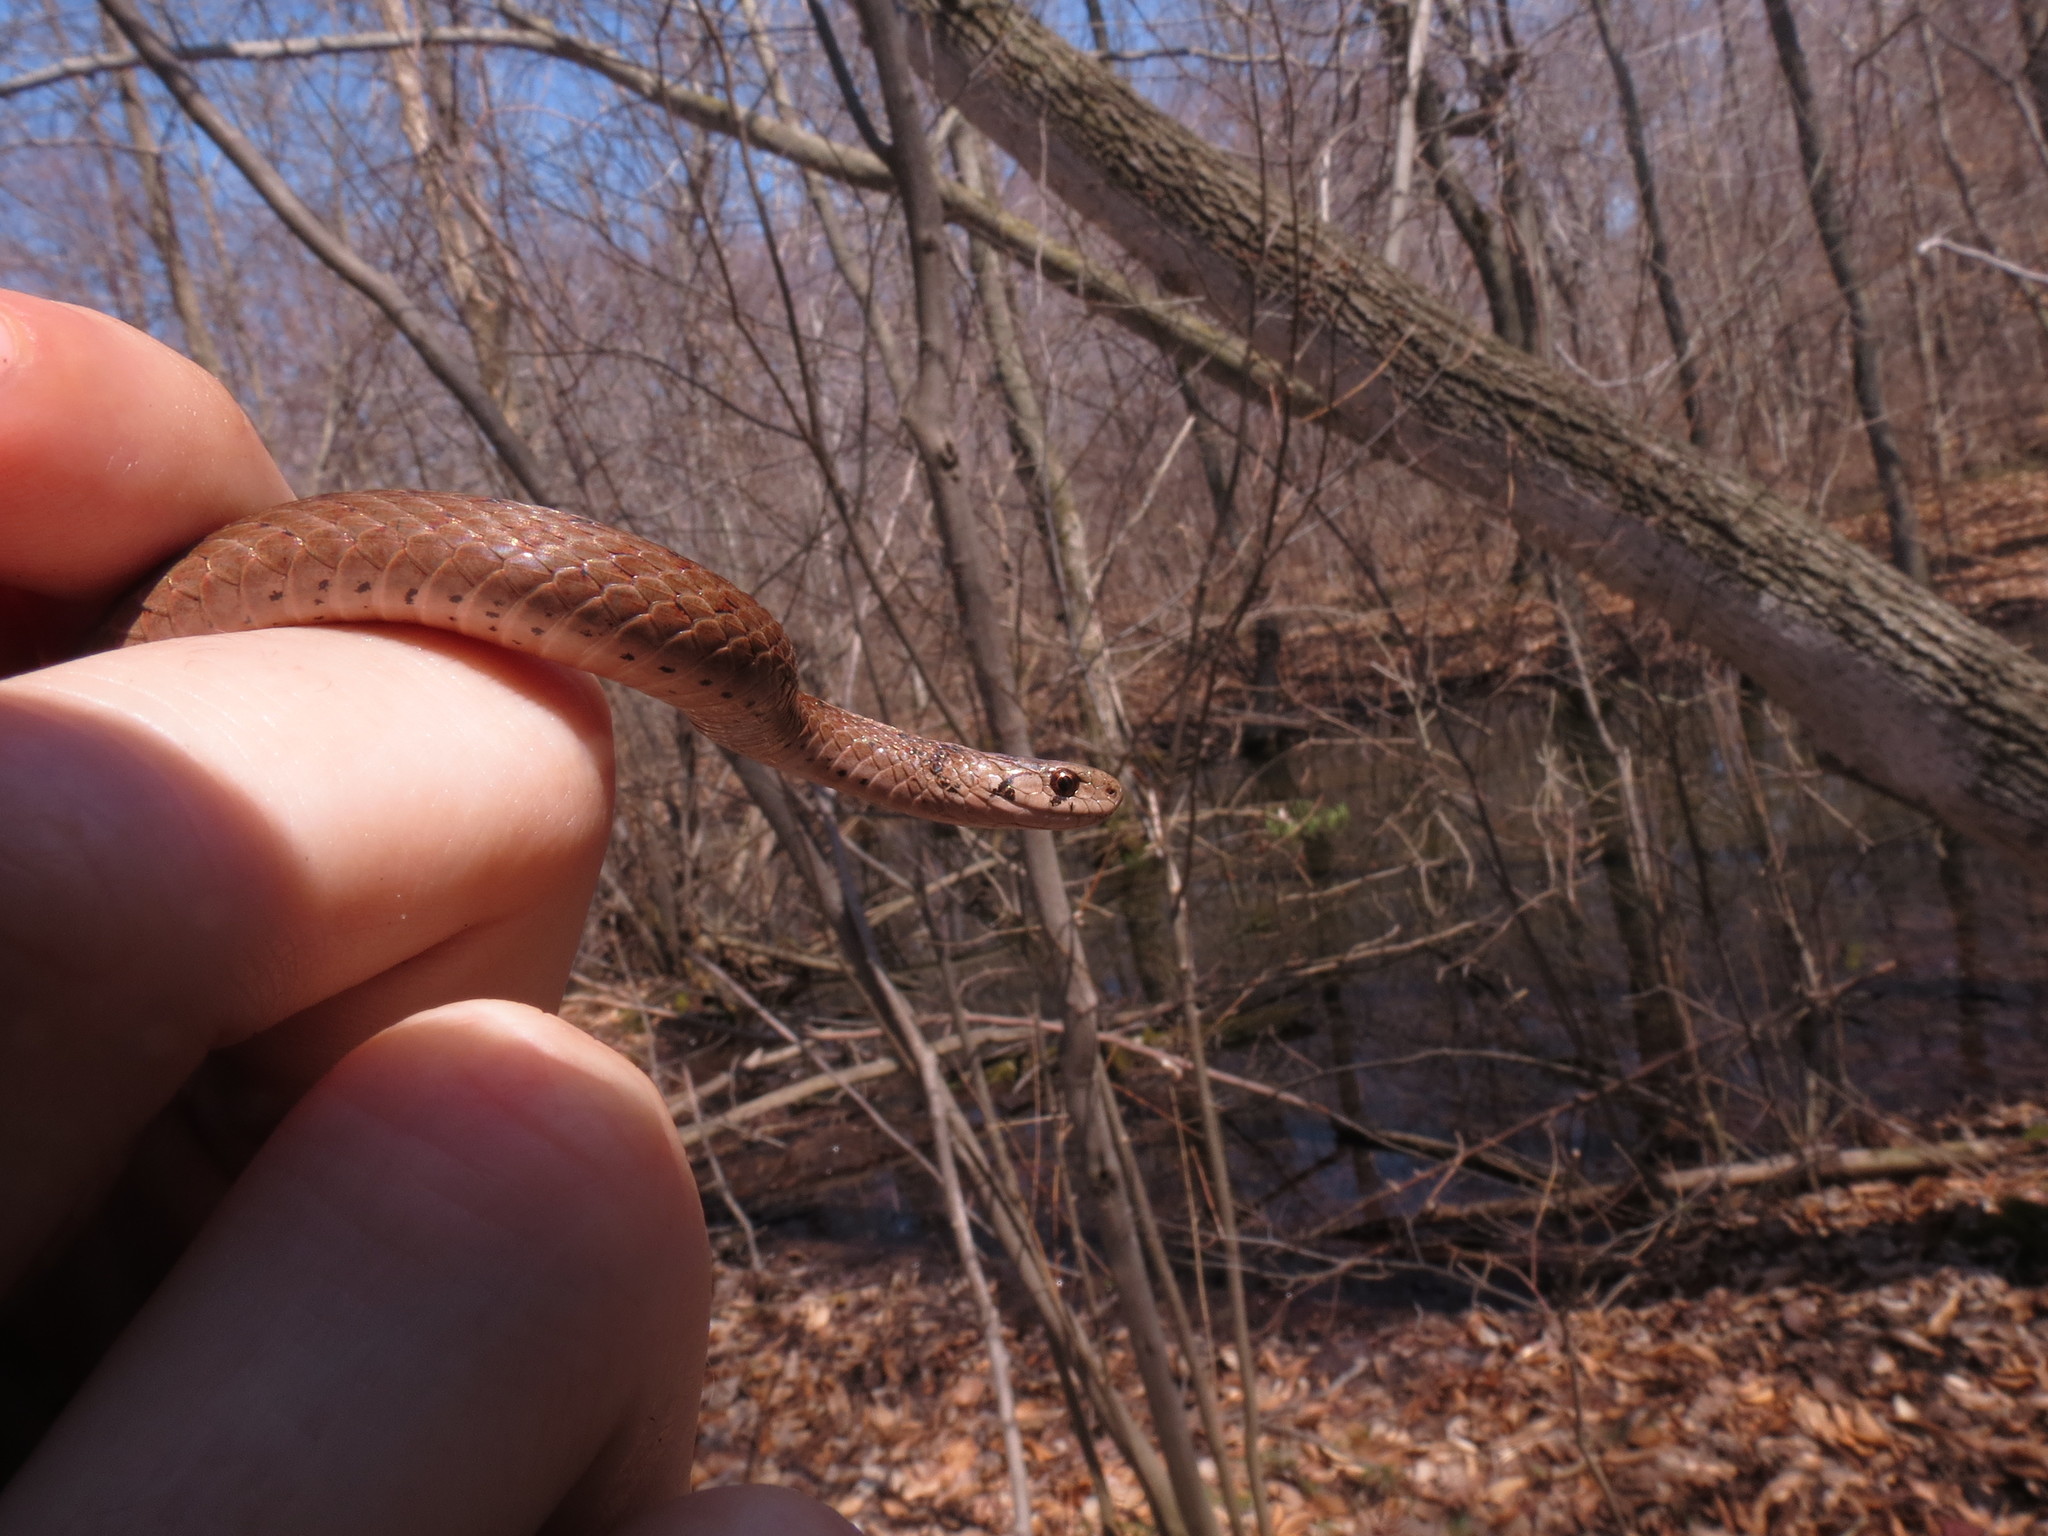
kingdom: Animalia
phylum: Chordata
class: Squamata
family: Colubridae
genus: Storeria
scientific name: Storeria dekayi
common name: (dekay’s) brown snake
